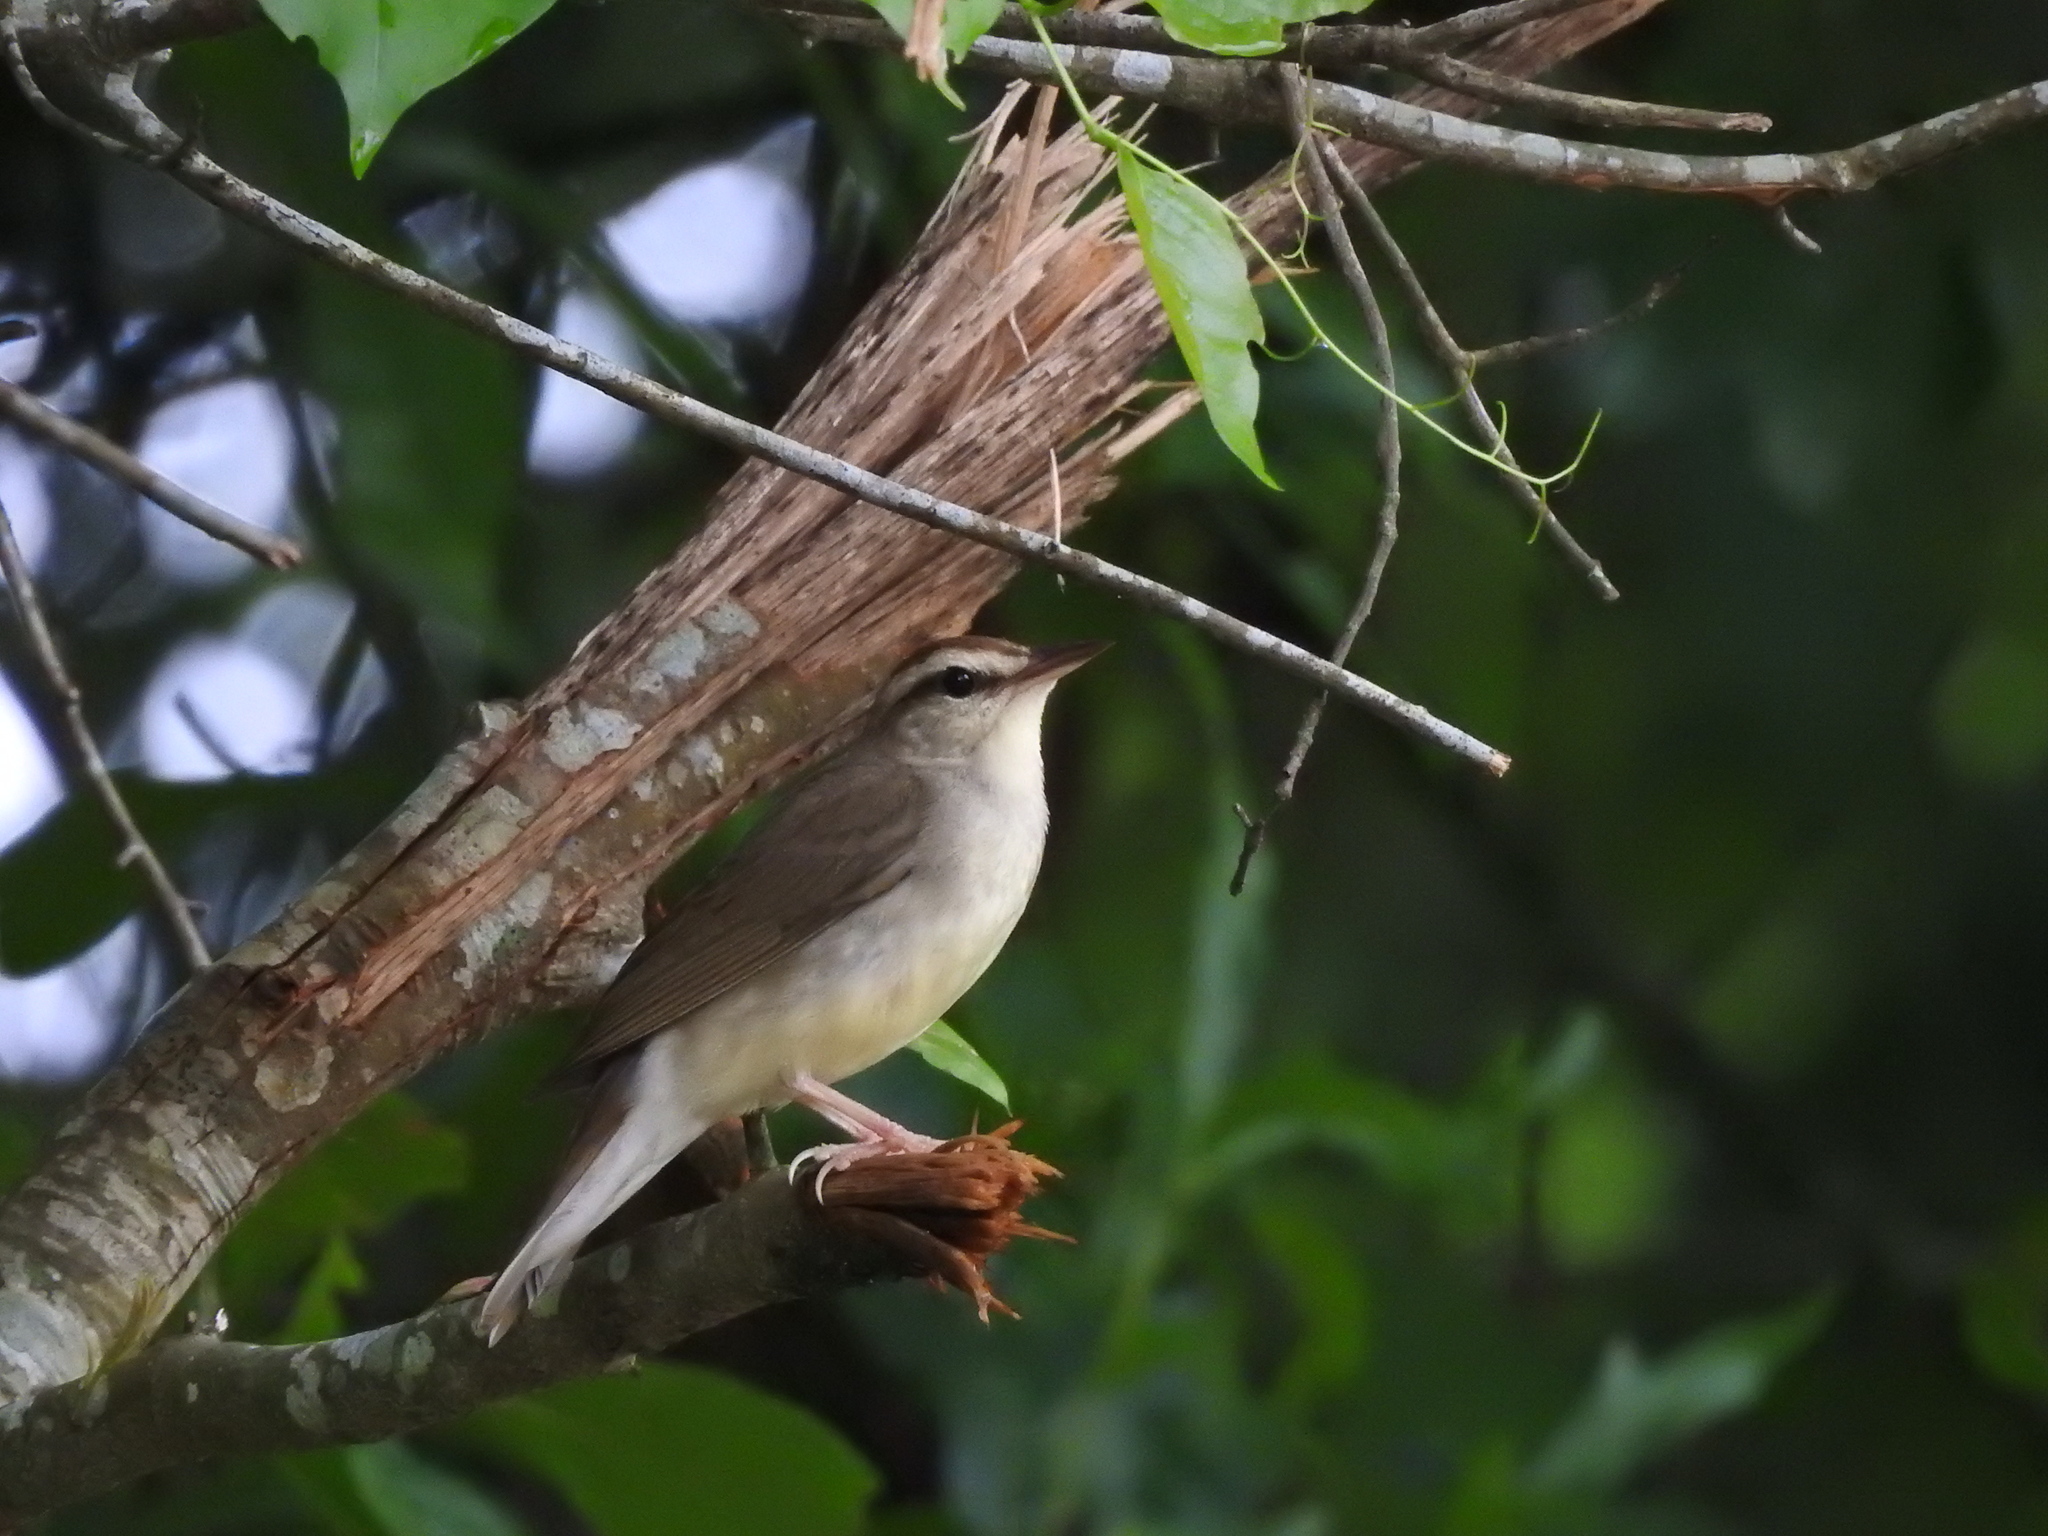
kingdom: Animalia
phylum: Chordata
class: Aves
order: Passeriformes
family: Parulidae
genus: Limnothlypis
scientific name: Limnothlypis swainsonii
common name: Swainson's warbler
